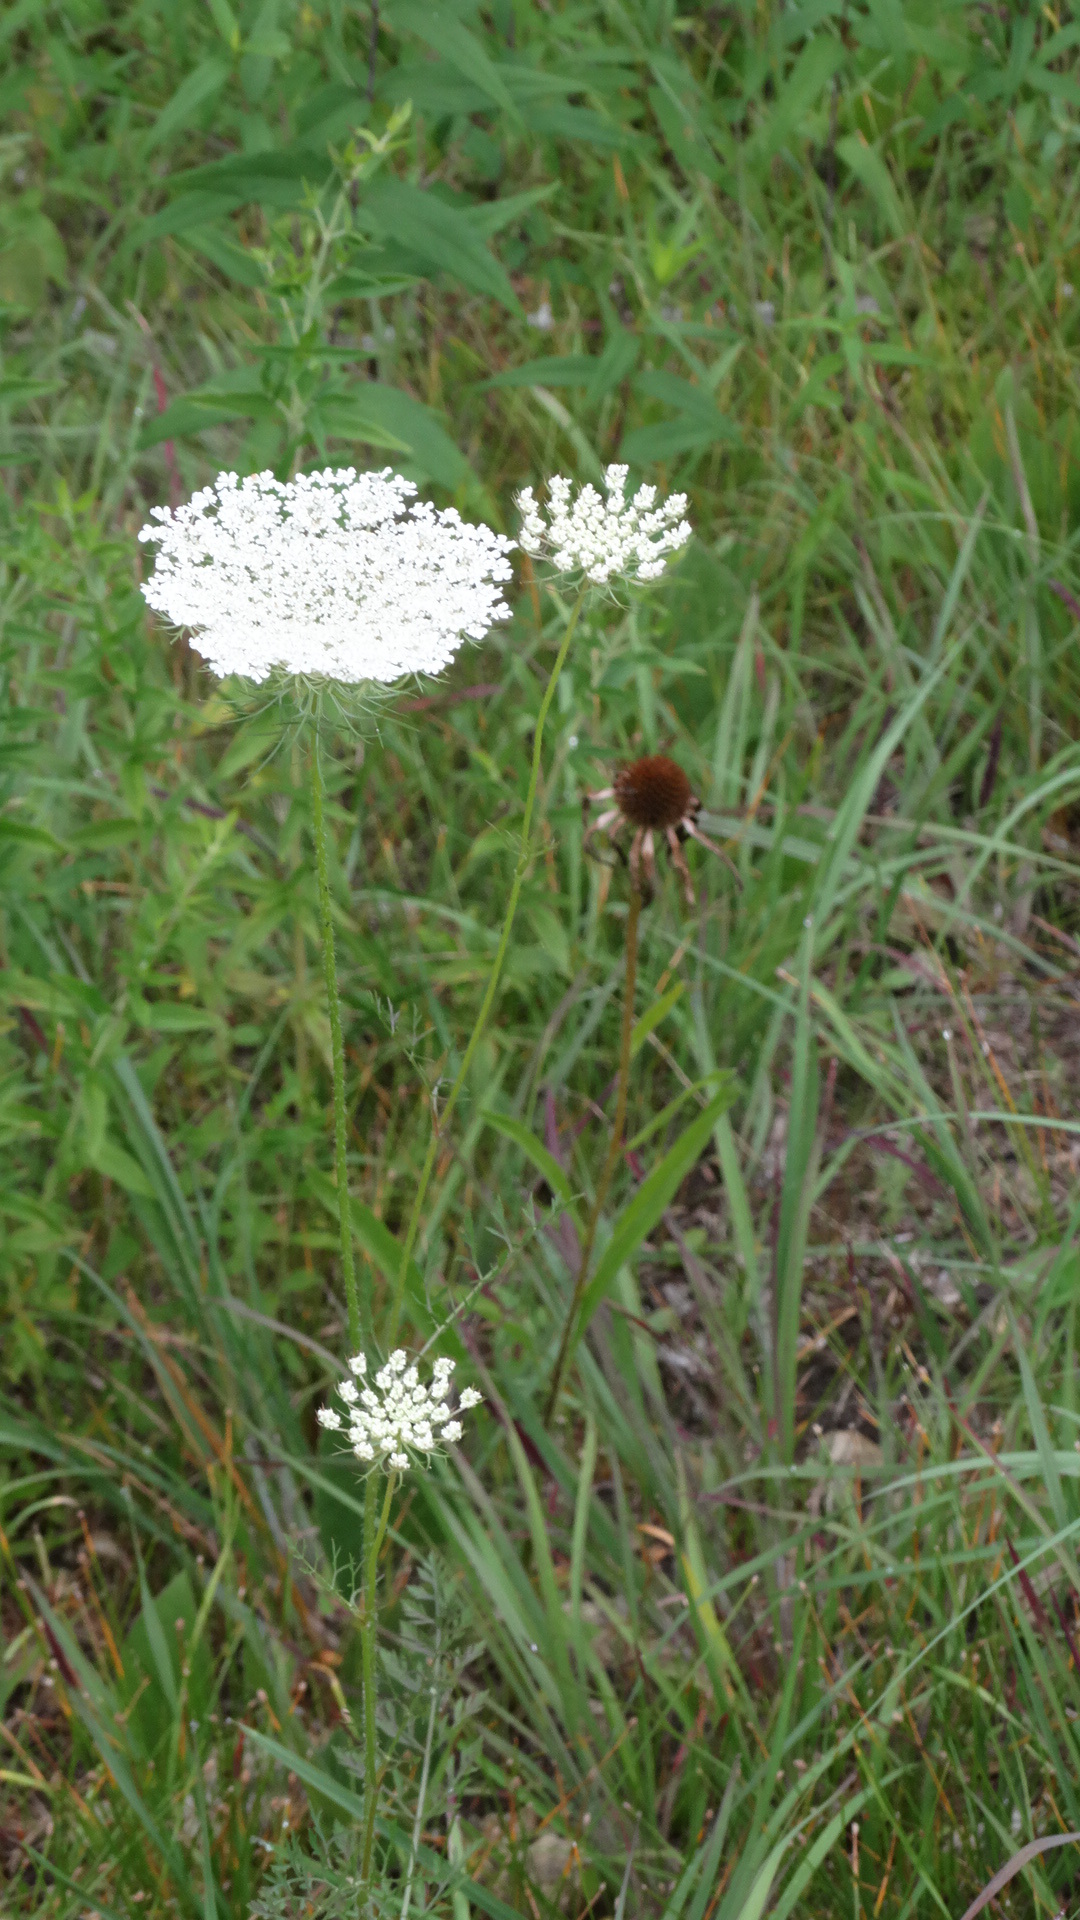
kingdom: Plantae
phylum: Tracheophyta
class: Magnoliopsida
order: Apiales
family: Apiaceae
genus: Daucus
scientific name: Daucus carota
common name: Wild carrot
